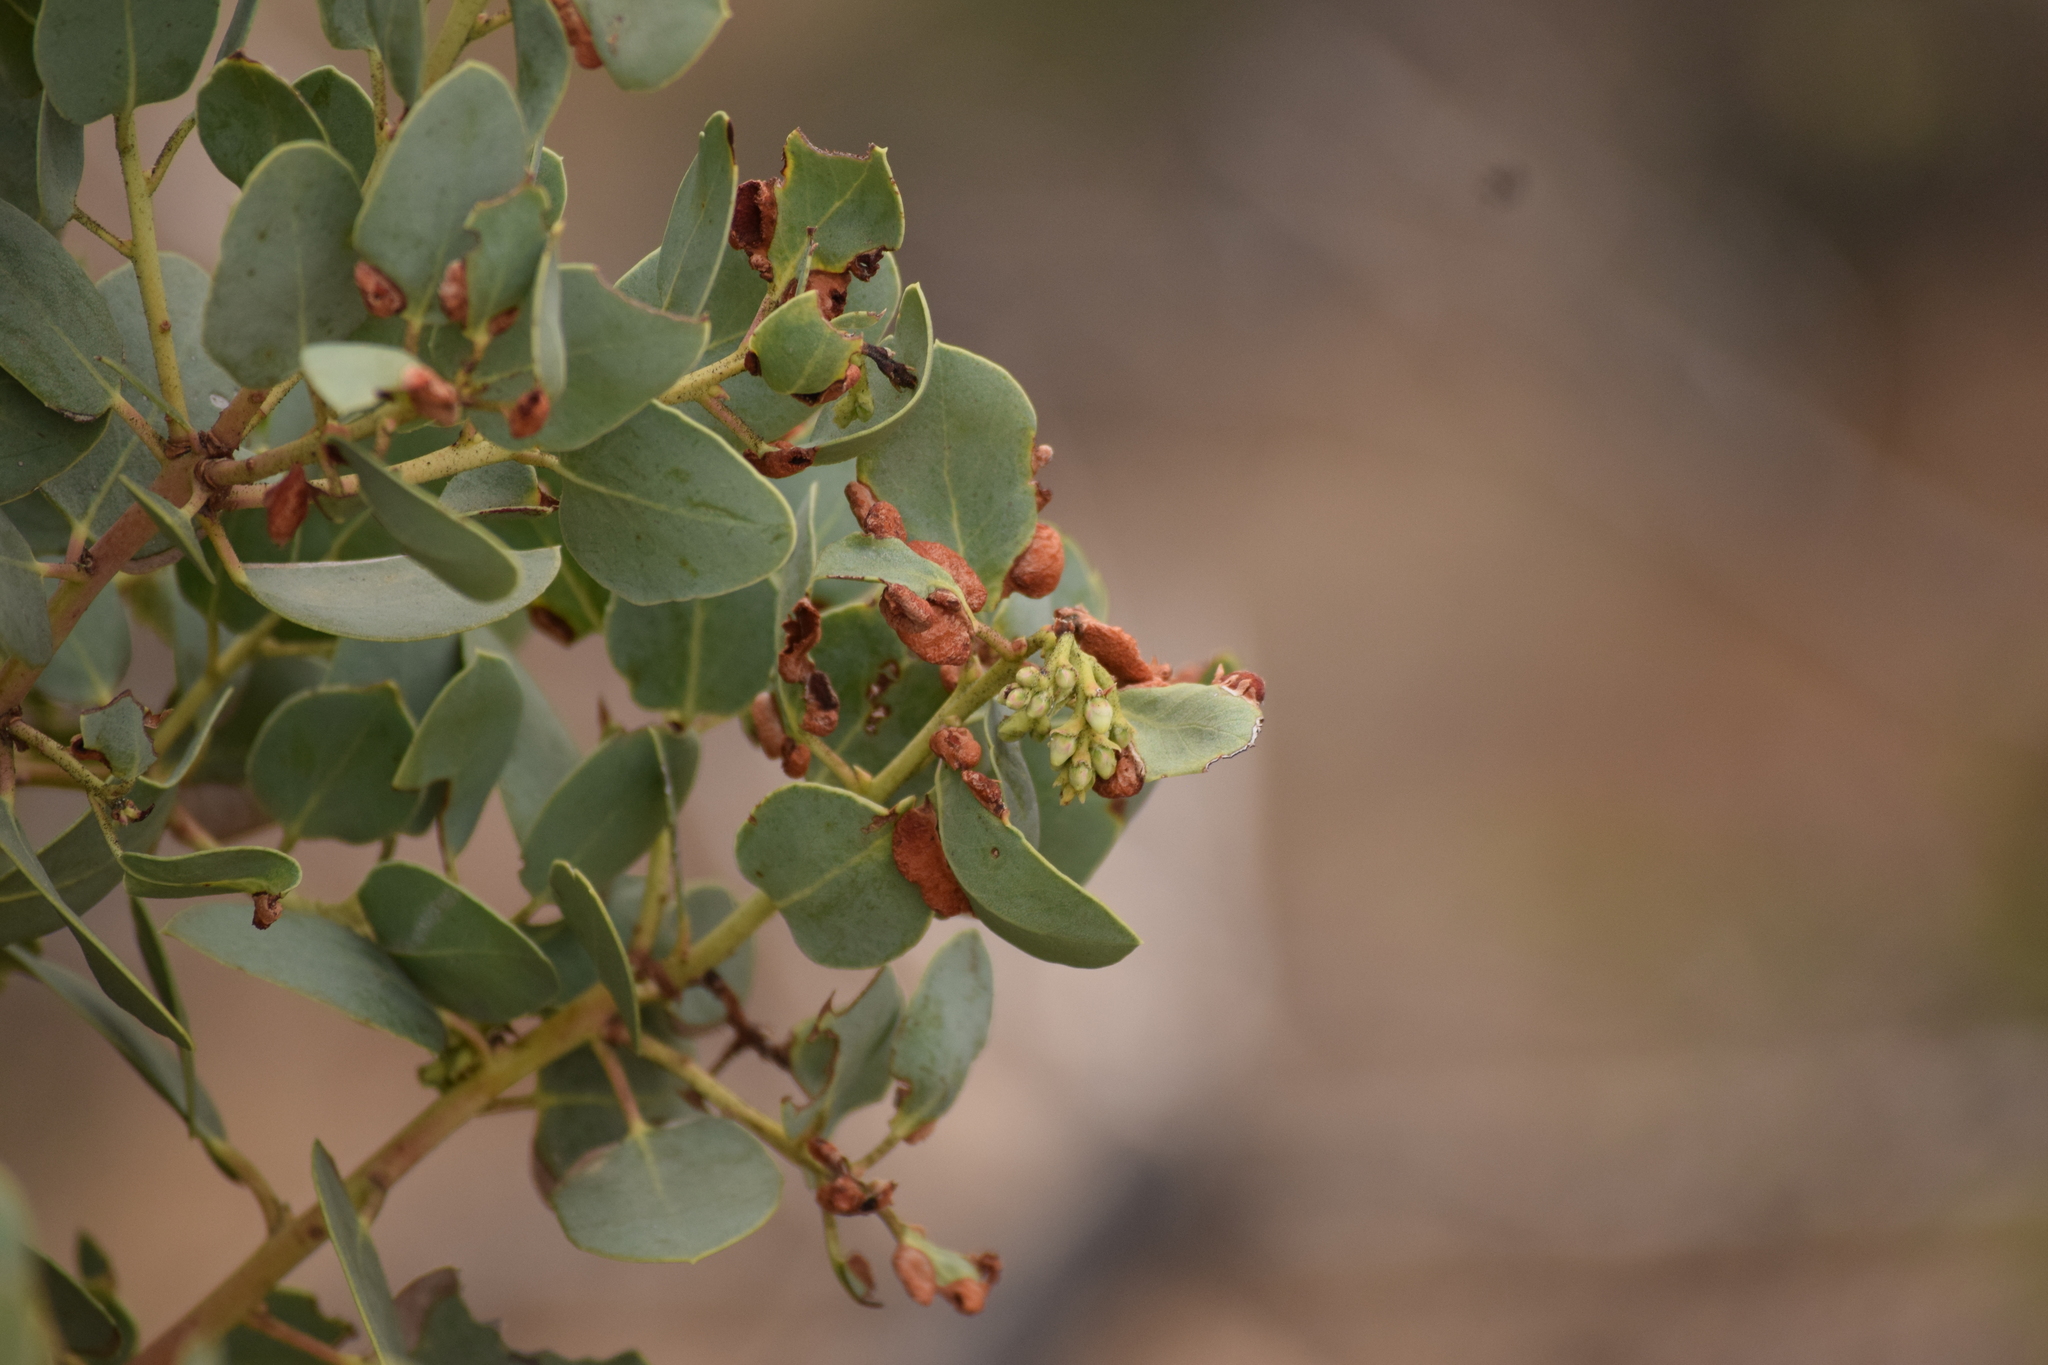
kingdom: Plantae
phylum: Tracheophyta
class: Magnoliopsida
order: Ericales
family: Ericaceae
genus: Arctostaphylos
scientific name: Arctostaphylos glauca
